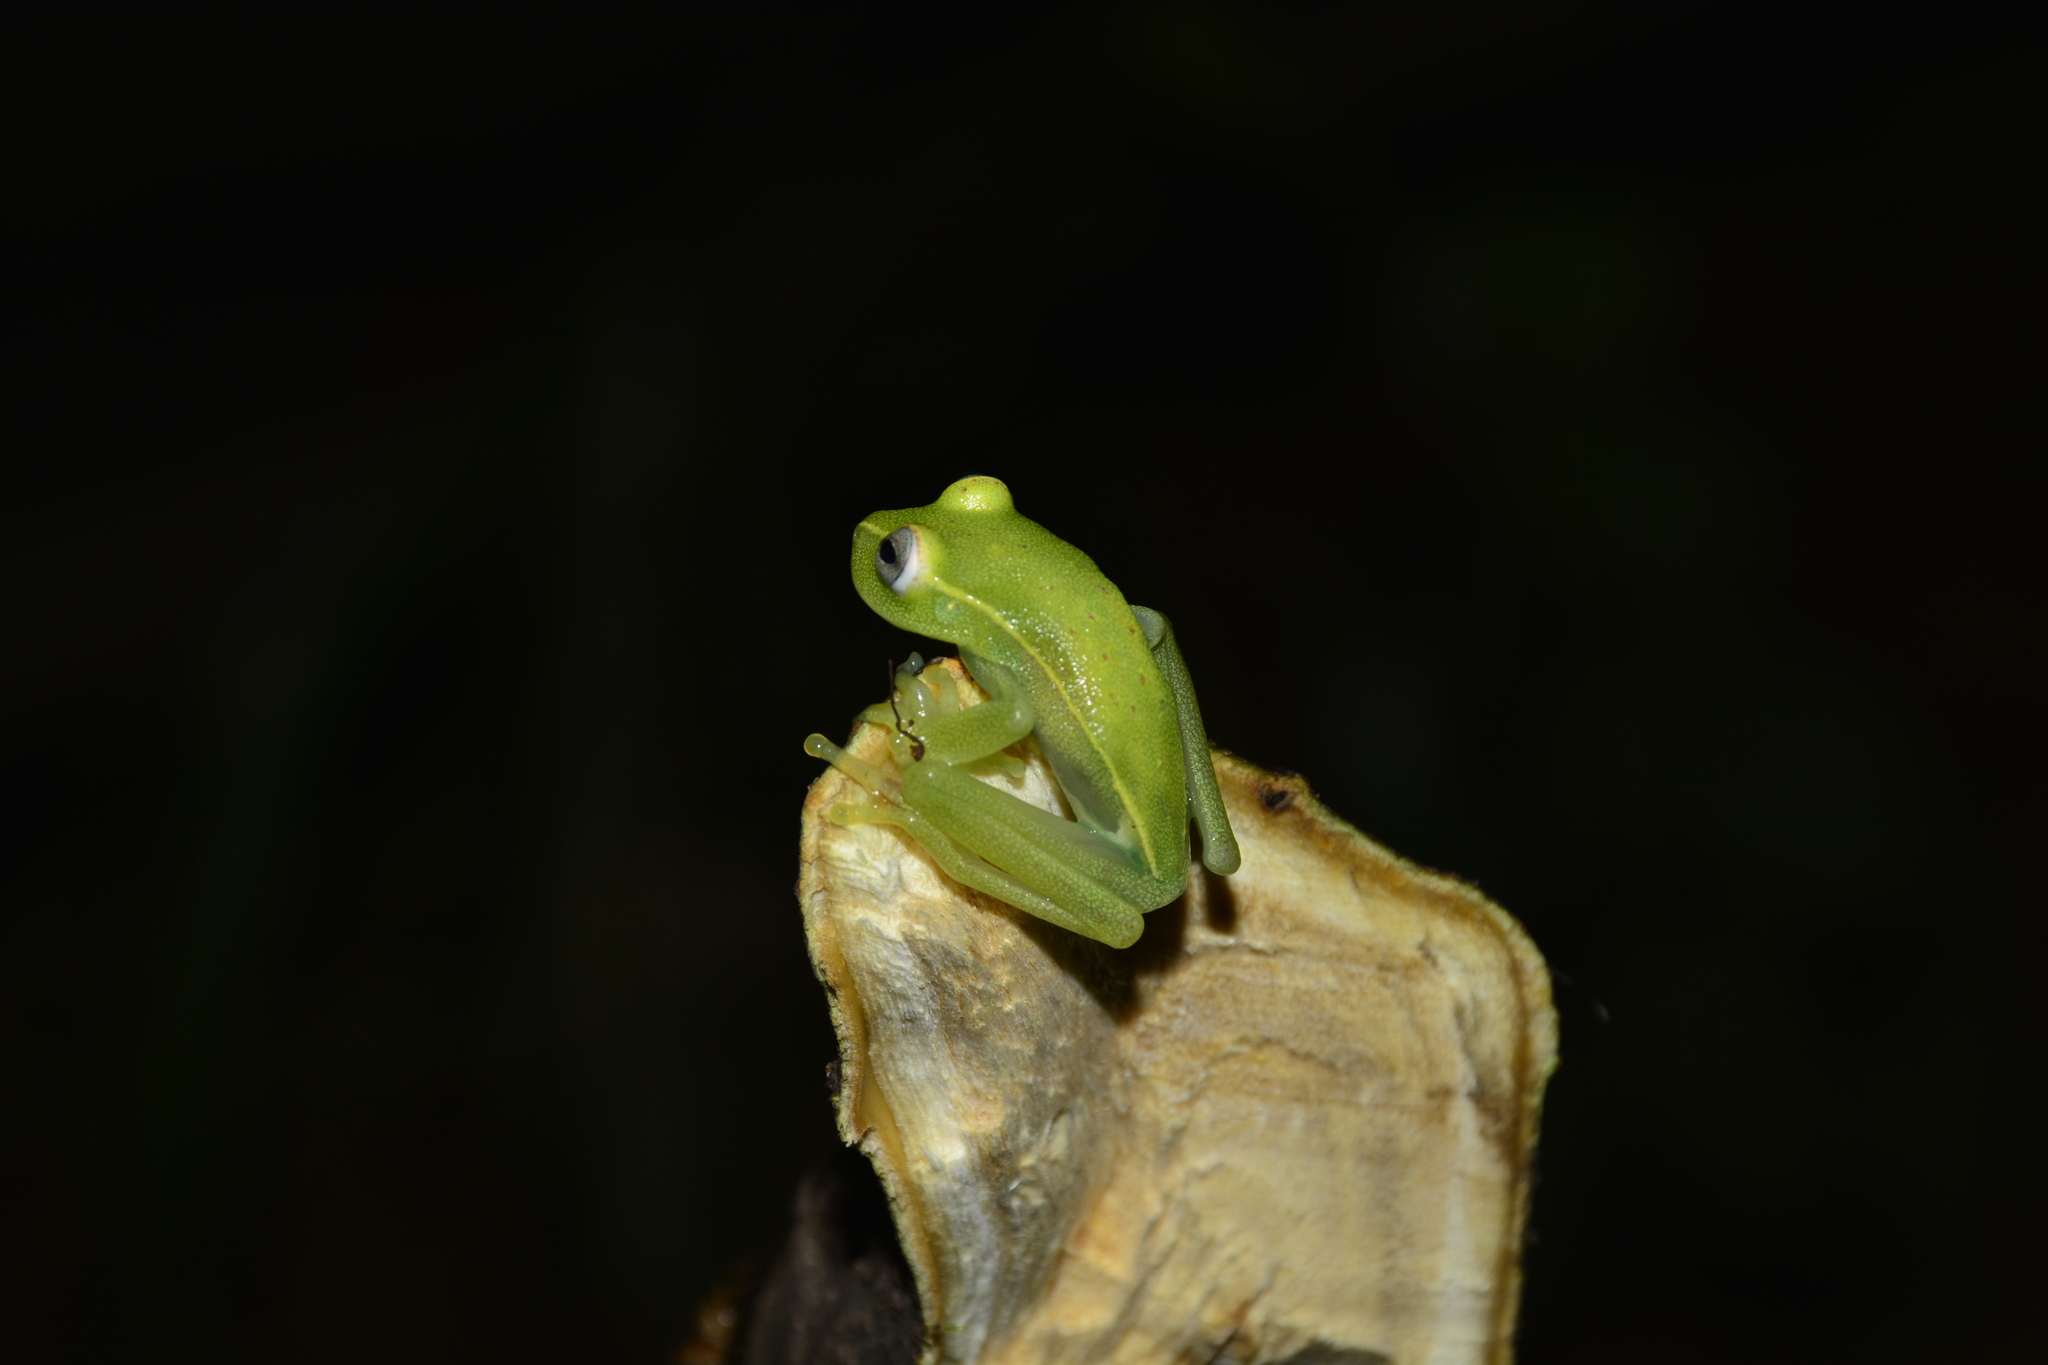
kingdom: Animalia
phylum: Chordata
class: Amphibia
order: Anura
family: Hylidae
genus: Boana
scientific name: Boana punctata
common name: Polka-dot treefrog
